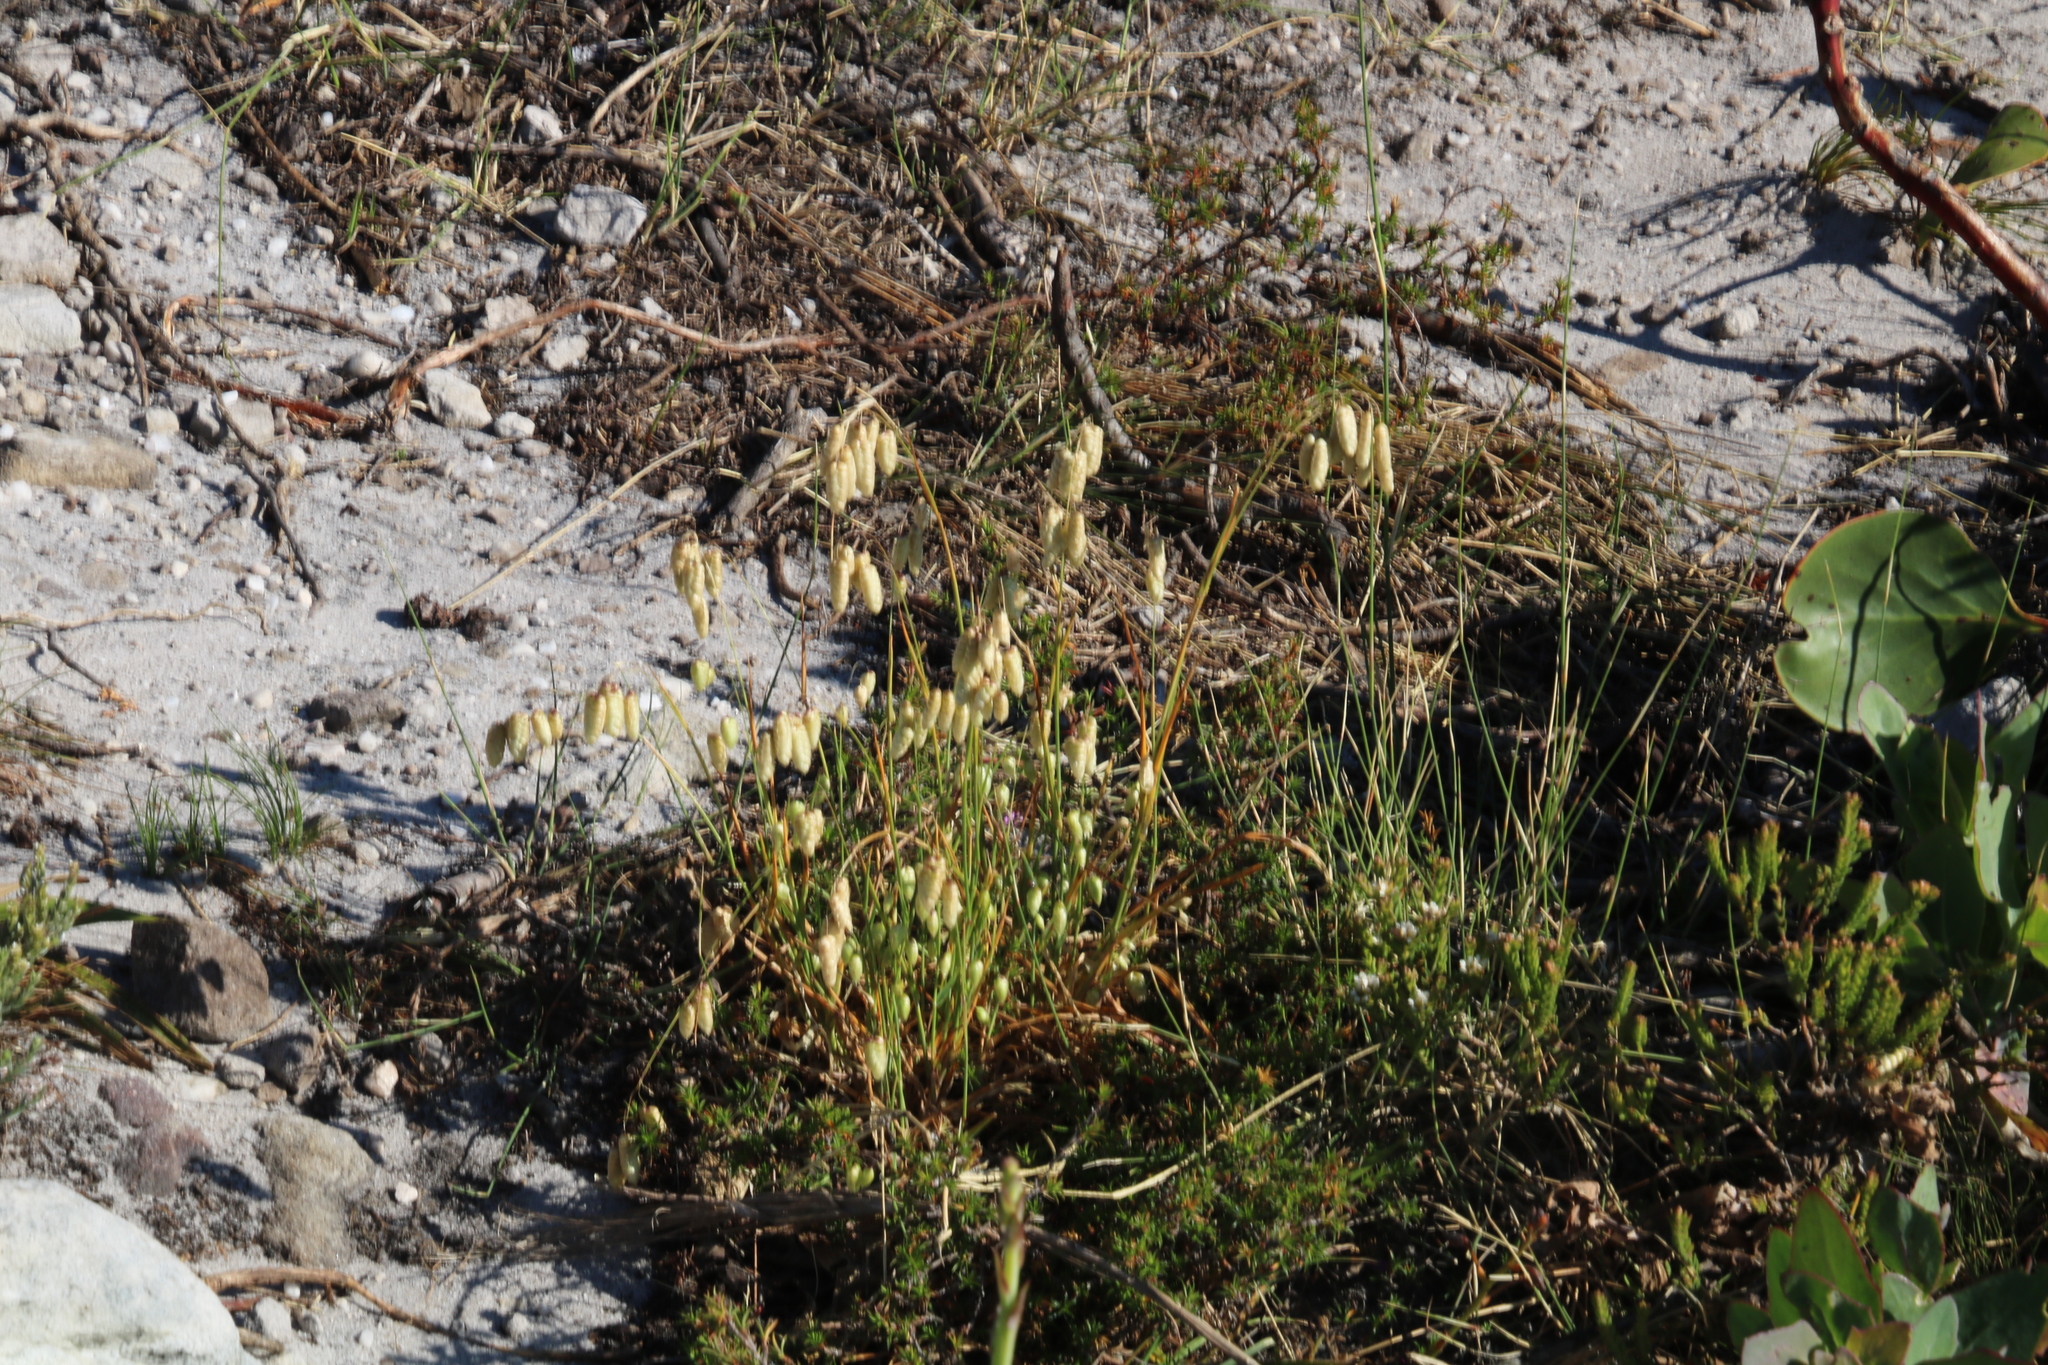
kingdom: Plantae
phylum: Tracheophyta
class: Liliopsida
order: Poales
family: Poaceae
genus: Briza
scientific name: Briza maxima
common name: Big quakinggrass
